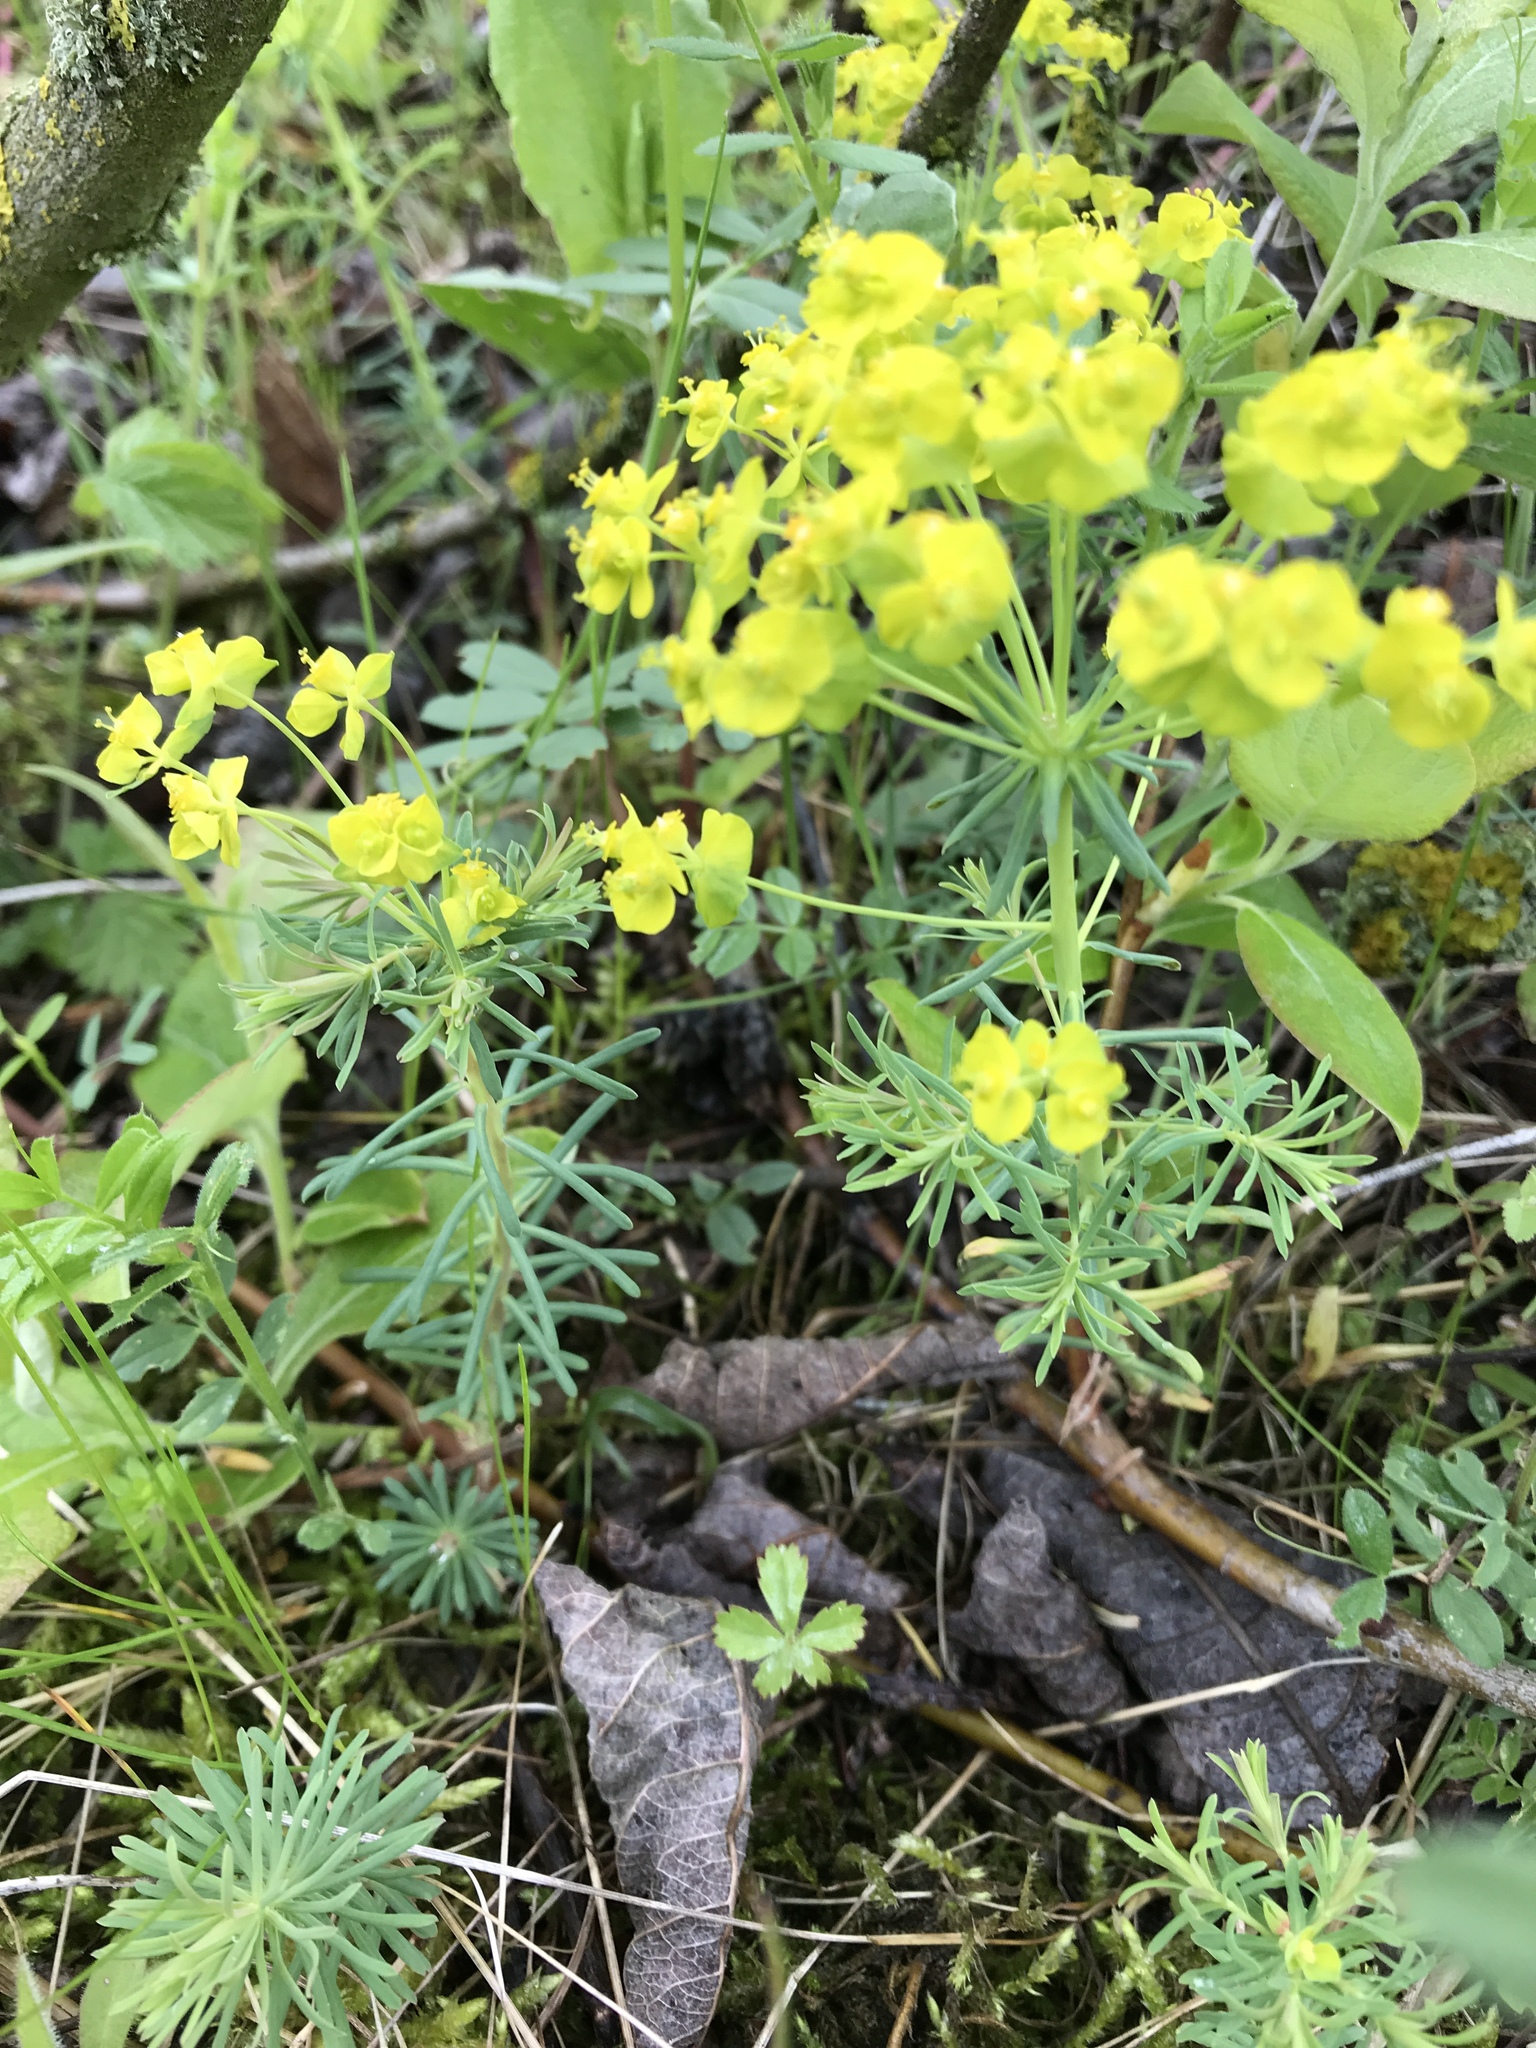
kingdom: Plantae
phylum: Tracheophyta
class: Magnoliopsida
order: Malpighiales
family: Euphorbiaceae
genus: Euphorbia
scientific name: Euphorbia cyparissias
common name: Cypress spurge
